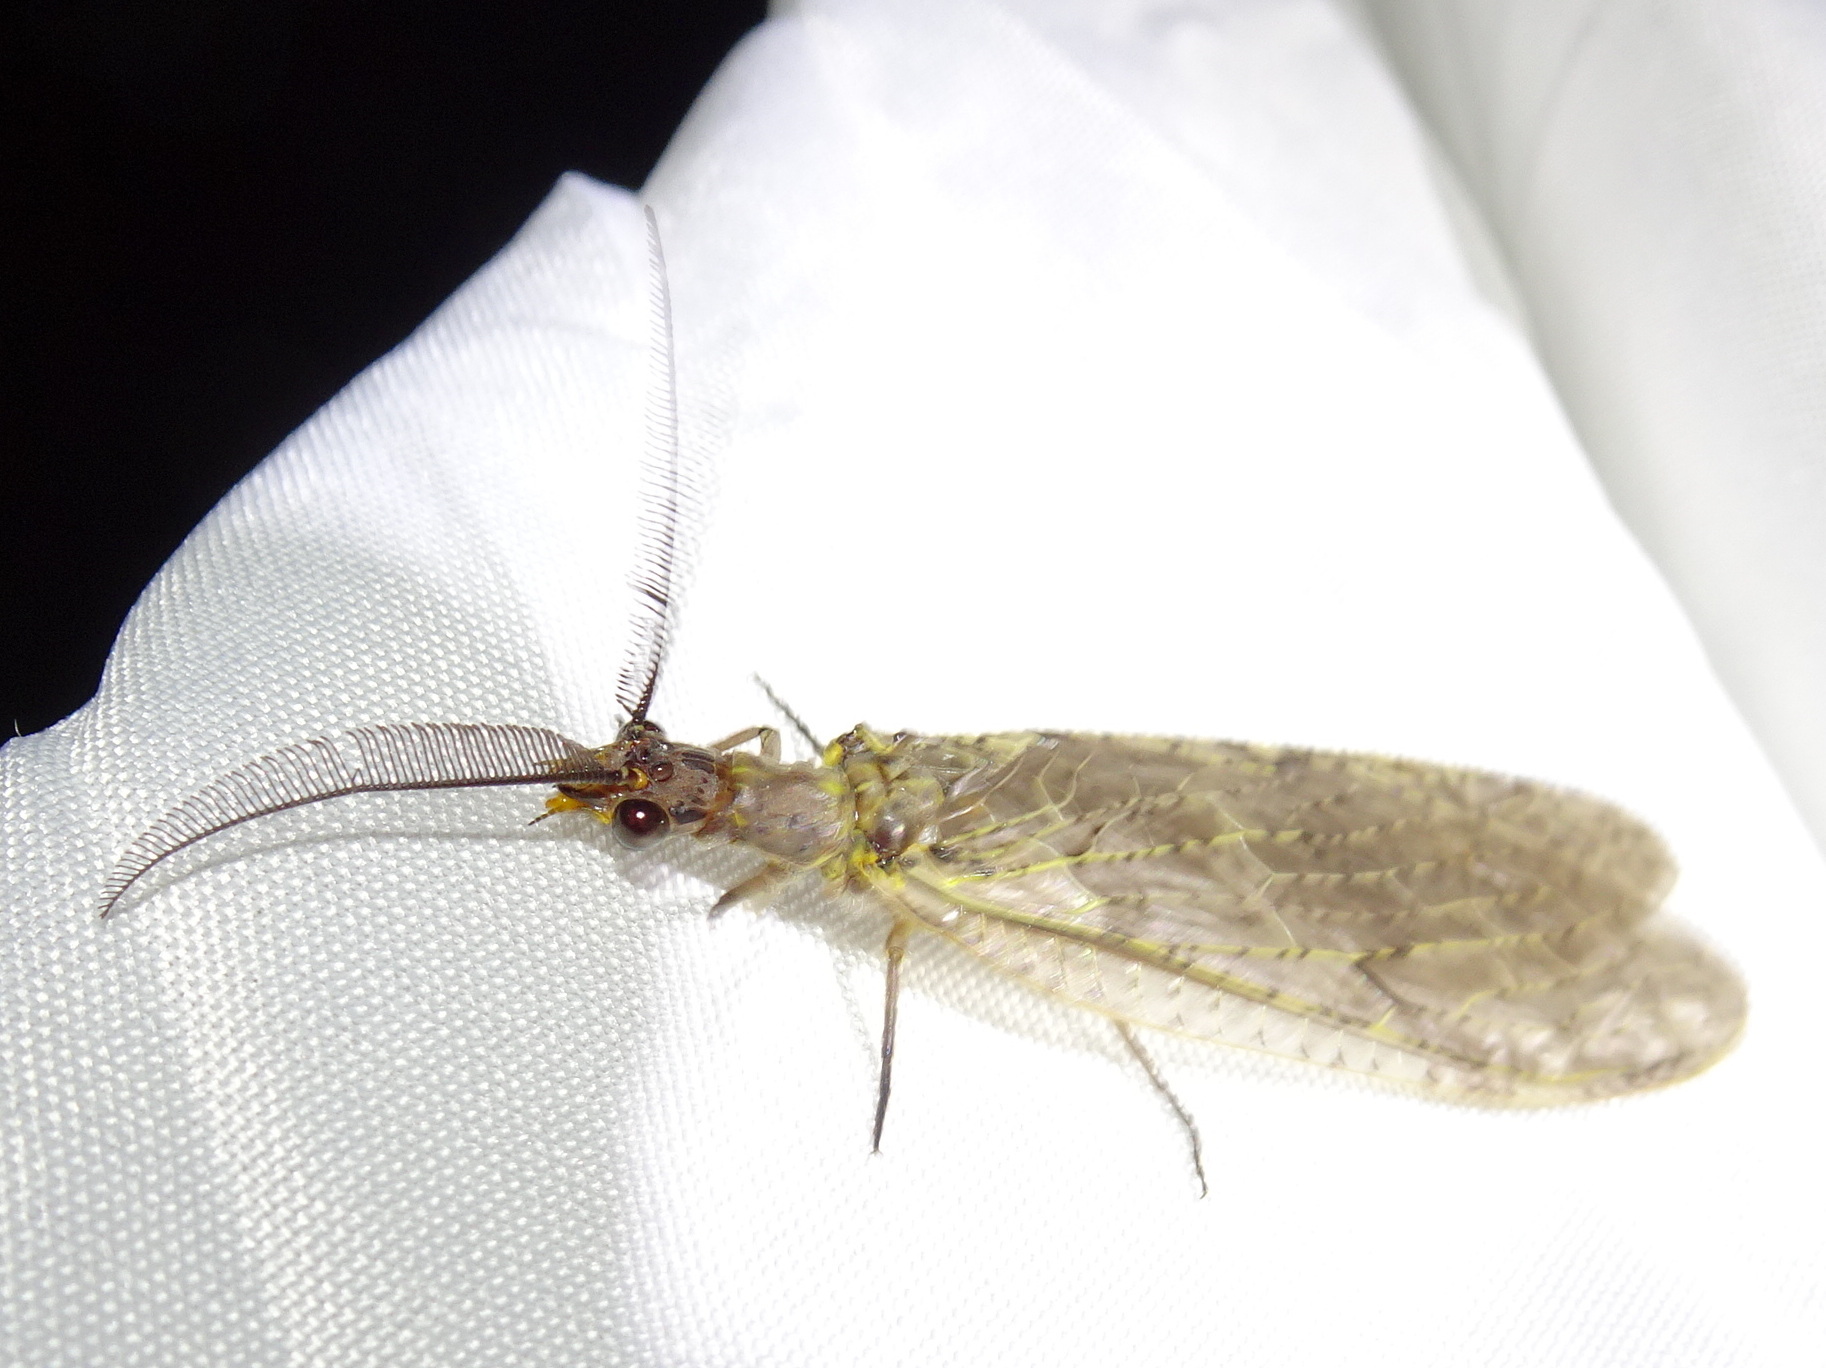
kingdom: Animalia
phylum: Arthropoda
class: Insecta
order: Megaloptera
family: Corydalidae
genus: Chauliodes
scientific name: Chauliodes rastricornis
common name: Spring fishfly
